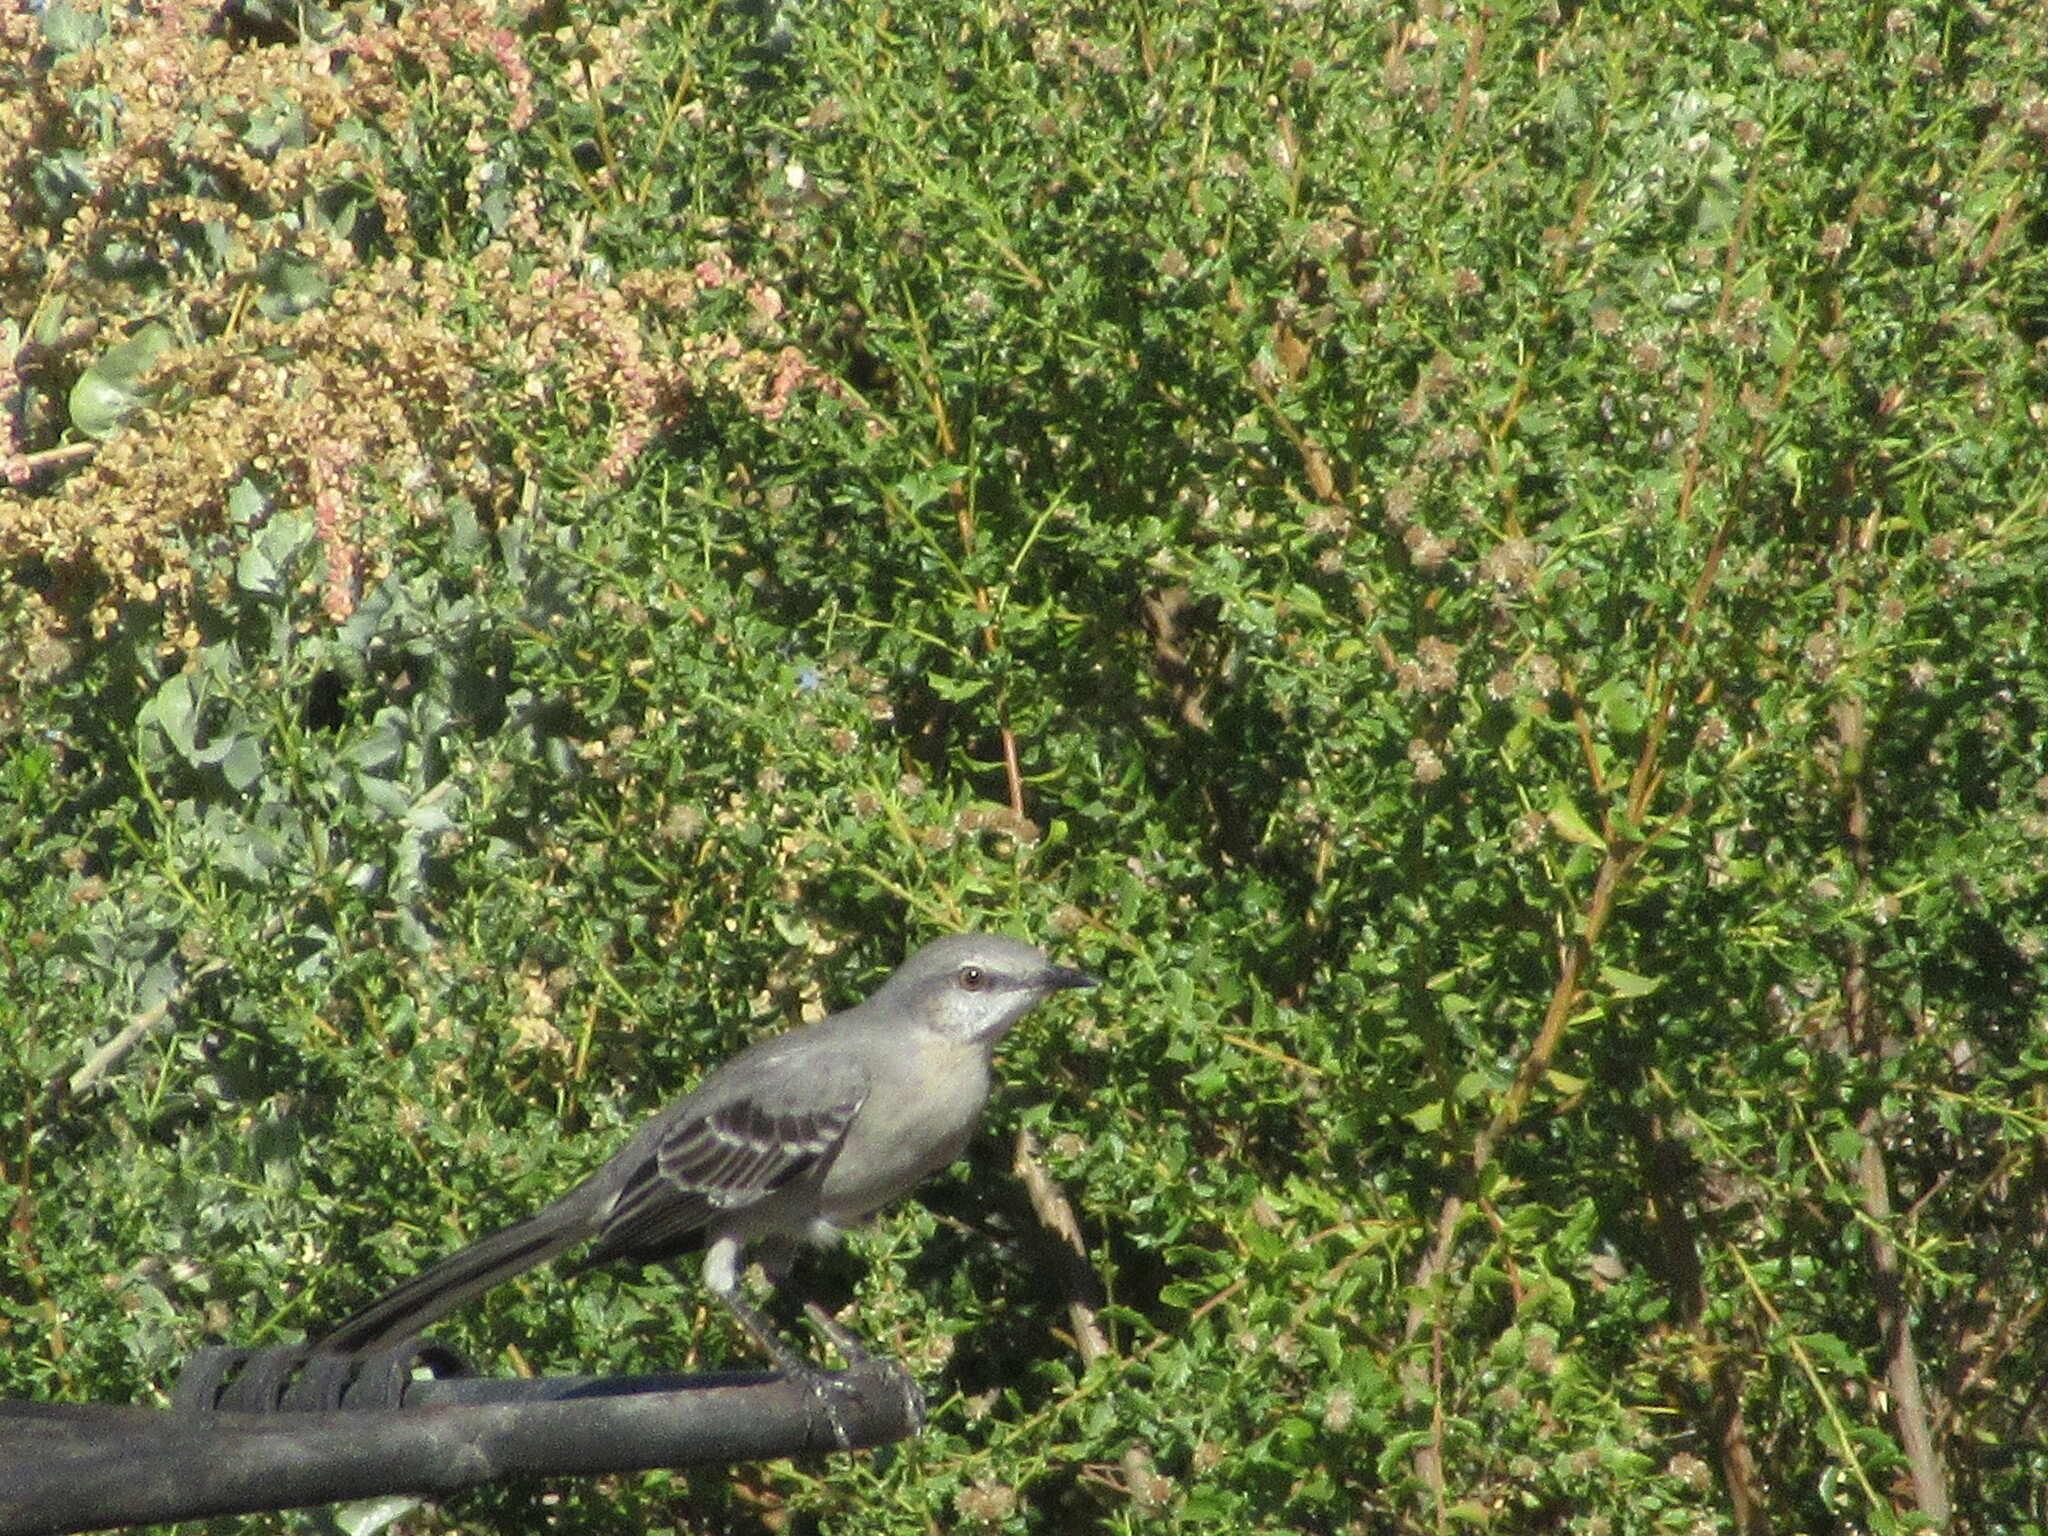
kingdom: Animalia
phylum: Chordata
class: Aves
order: Passeriformes
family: Mimidae
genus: Mimus
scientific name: Mimus polyglottos
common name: Northern mockingbird
